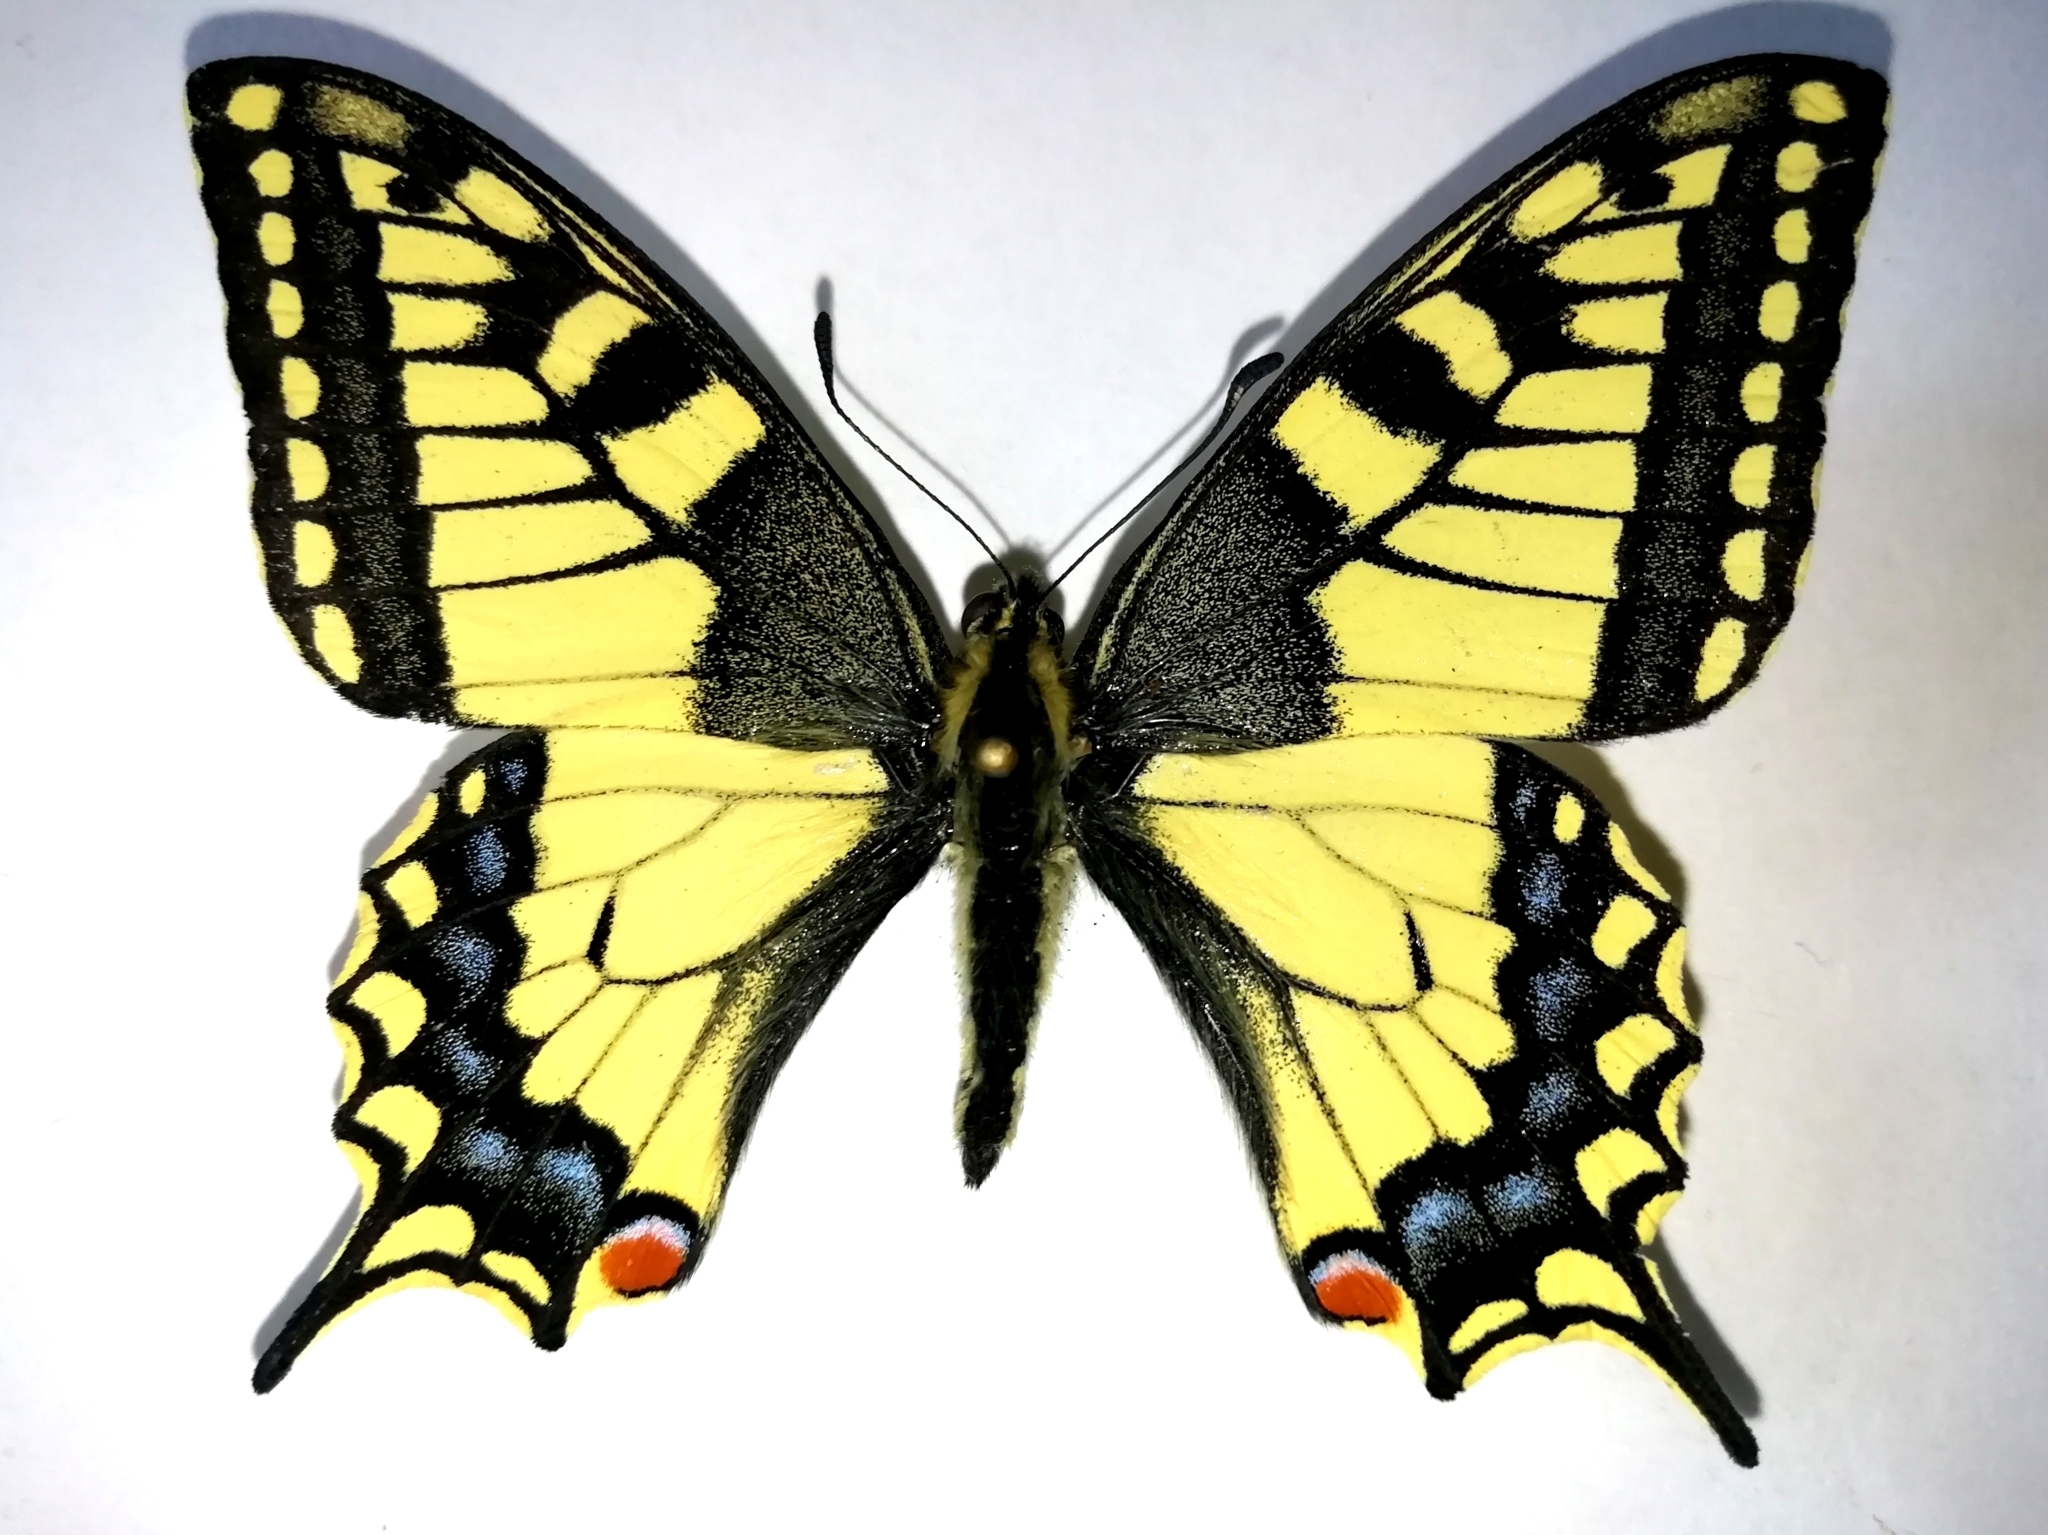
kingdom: Animalia
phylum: Arthropoda
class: Insecta
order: Lepidoptera
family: Papilionidae
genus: Papilio
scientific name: Papilio machaon
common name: Swallowtail
